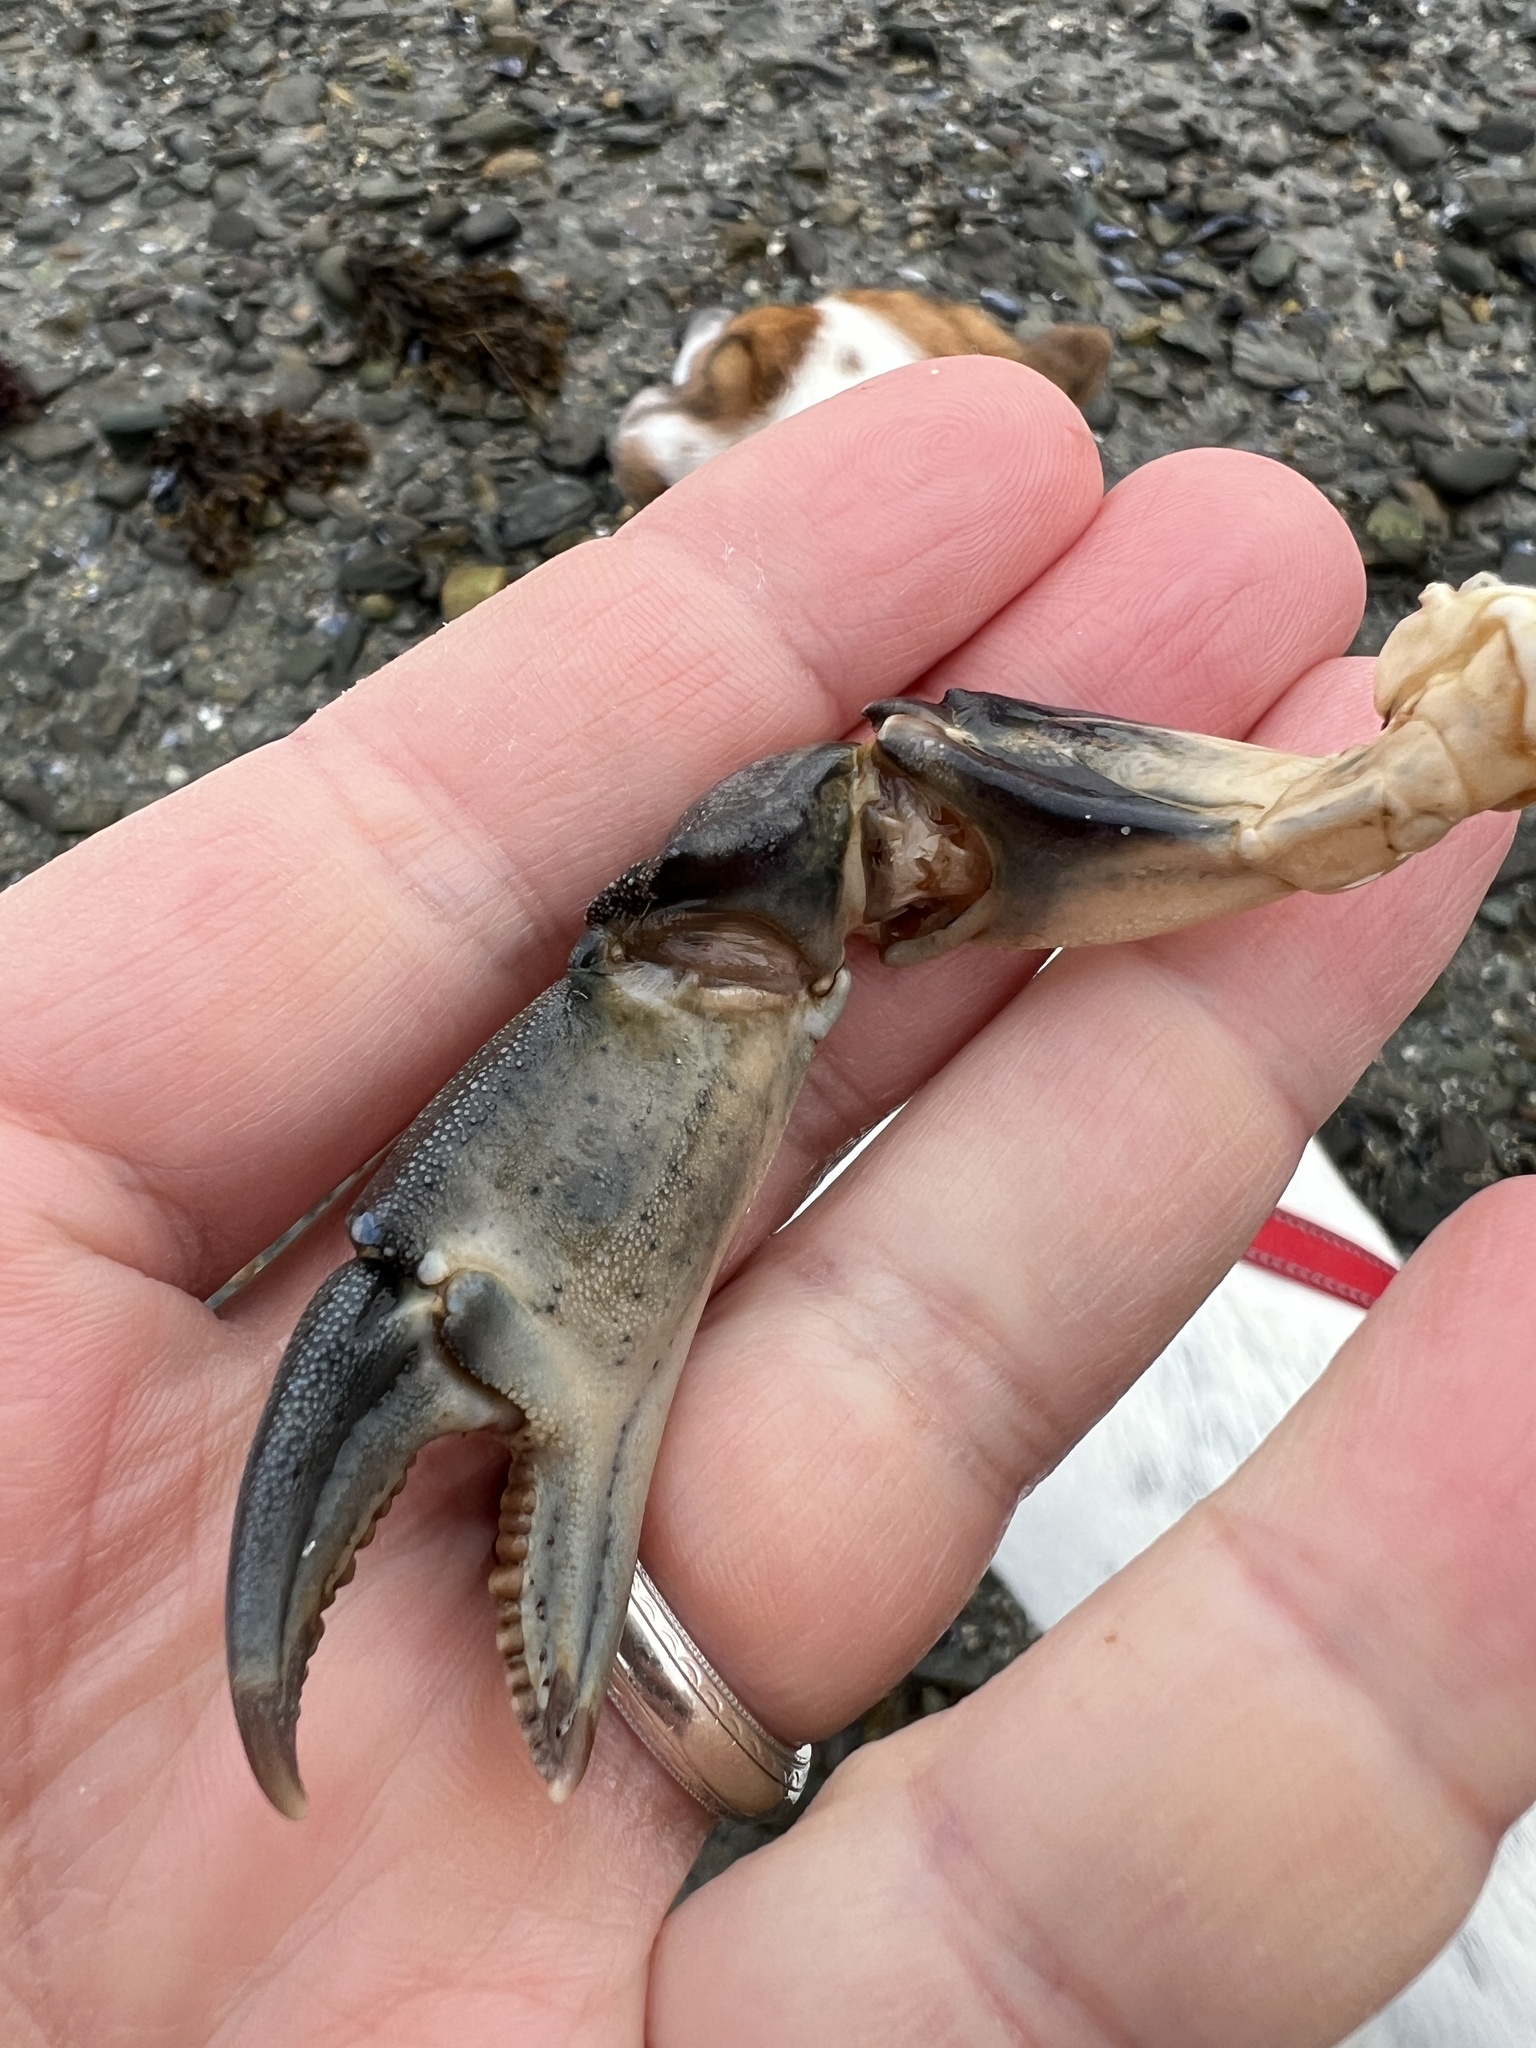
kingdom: Animalia
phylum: Arthropoda
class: Malacostraca
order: Decapoda
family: Carcinidae
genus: Carcinus
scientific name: Carcinus maenas
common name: European green crab
